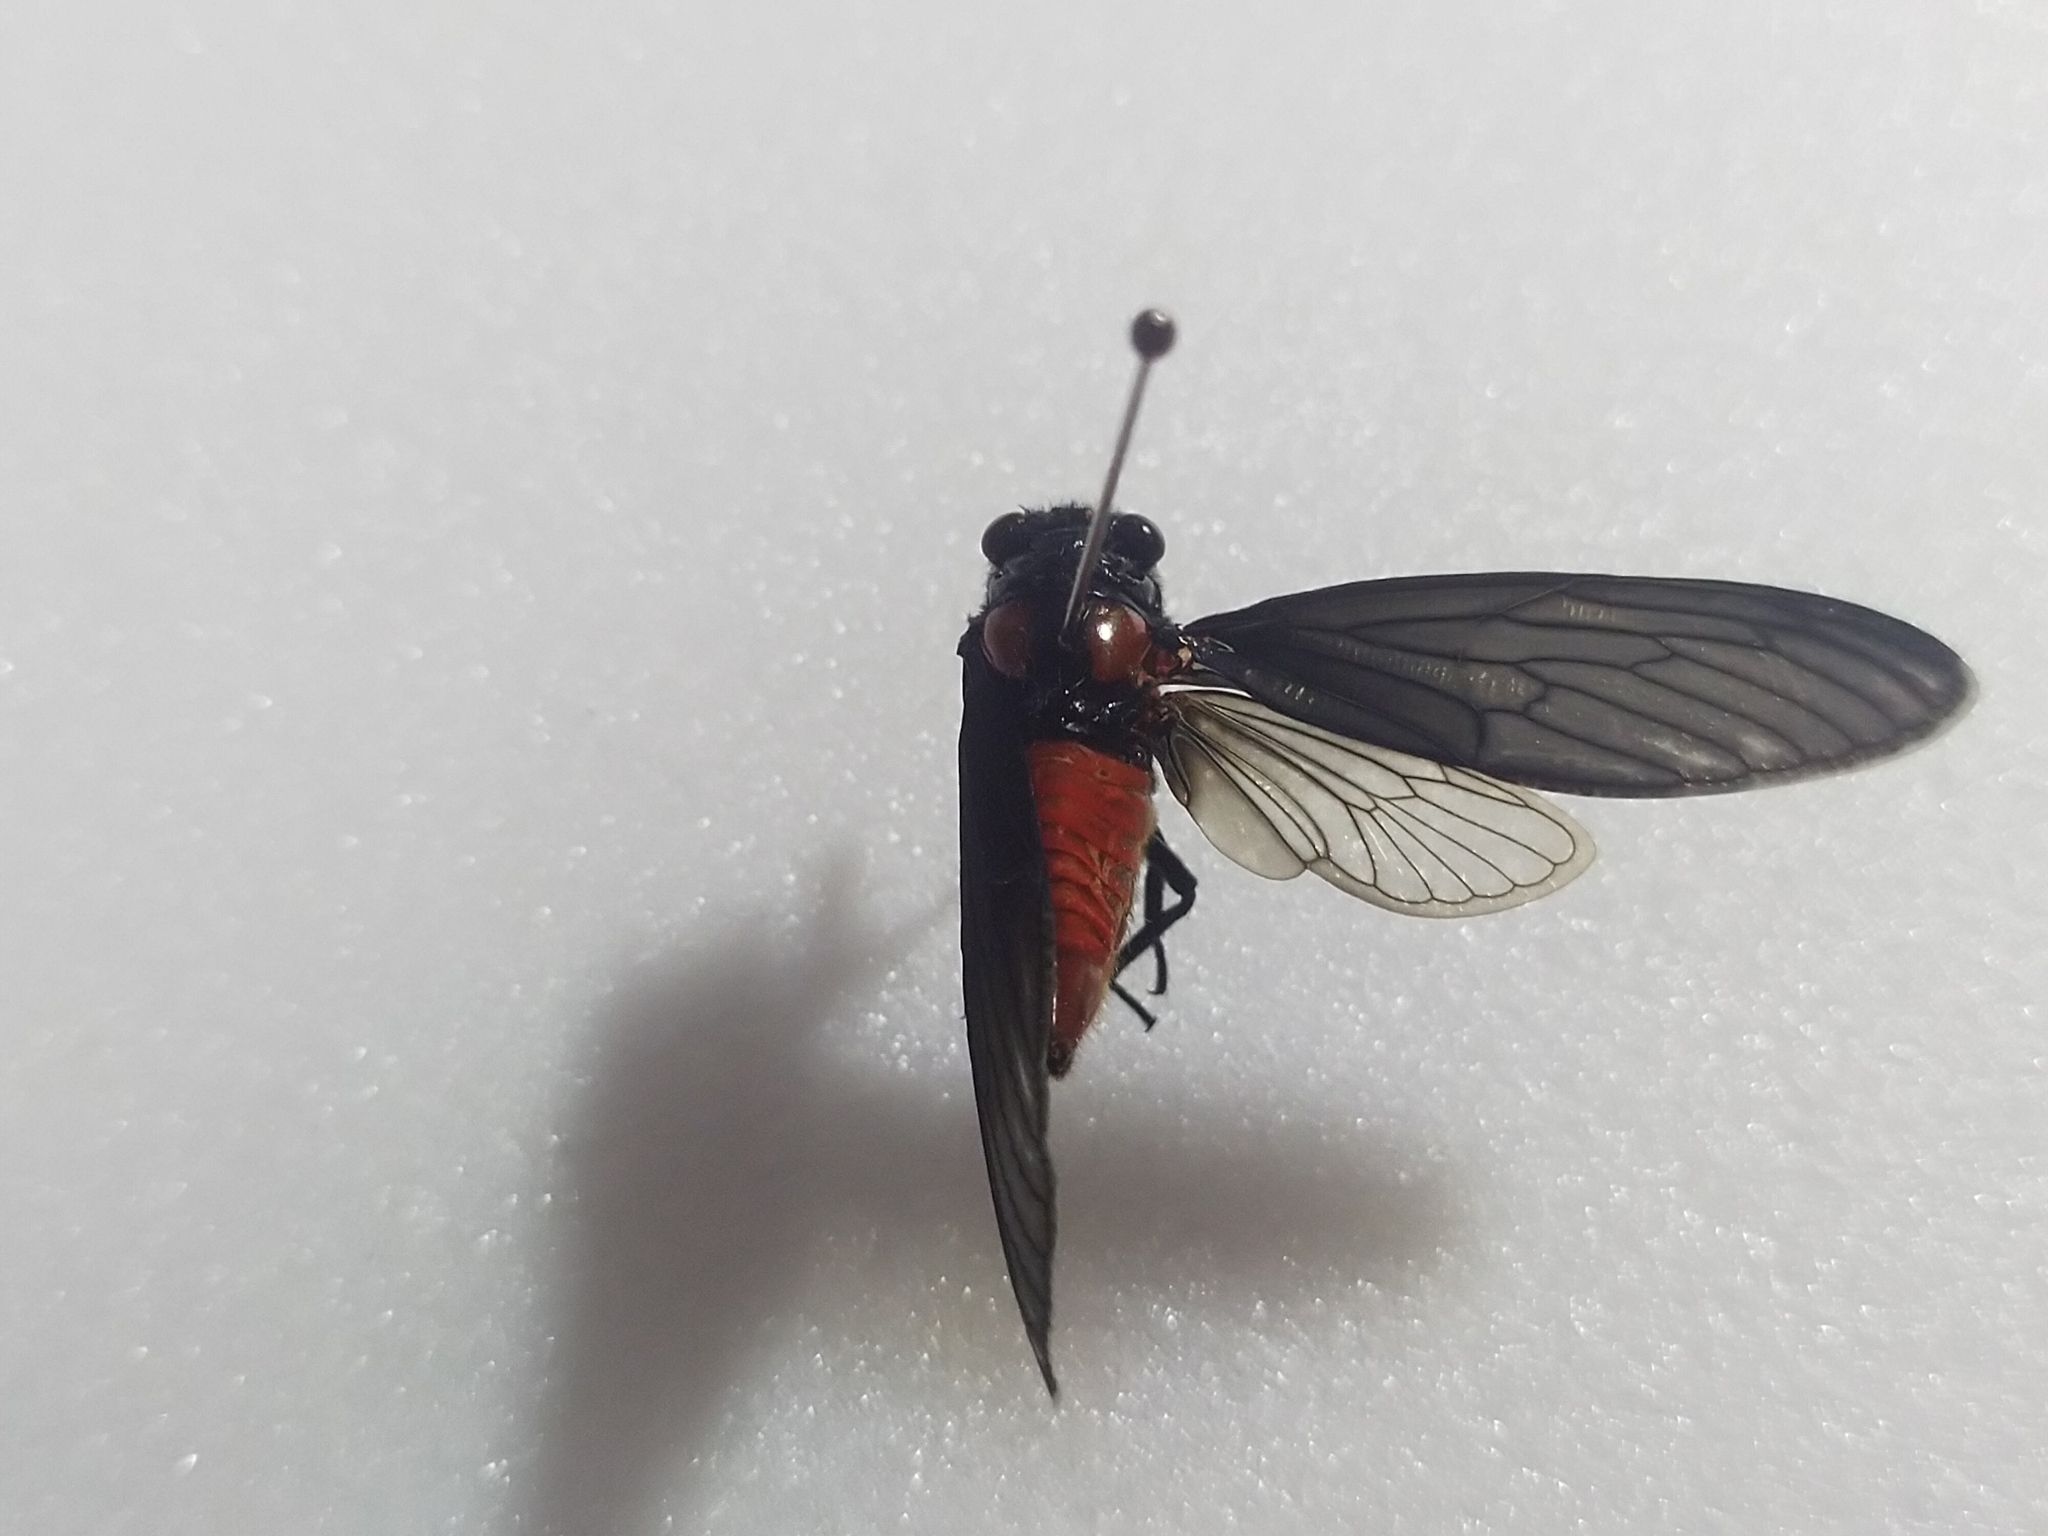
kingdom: Animalia
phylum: Arthropoda
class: Insecta
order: Hemiptera
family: Cicadidae
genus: Huechys
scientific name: Huechys sanguinea
